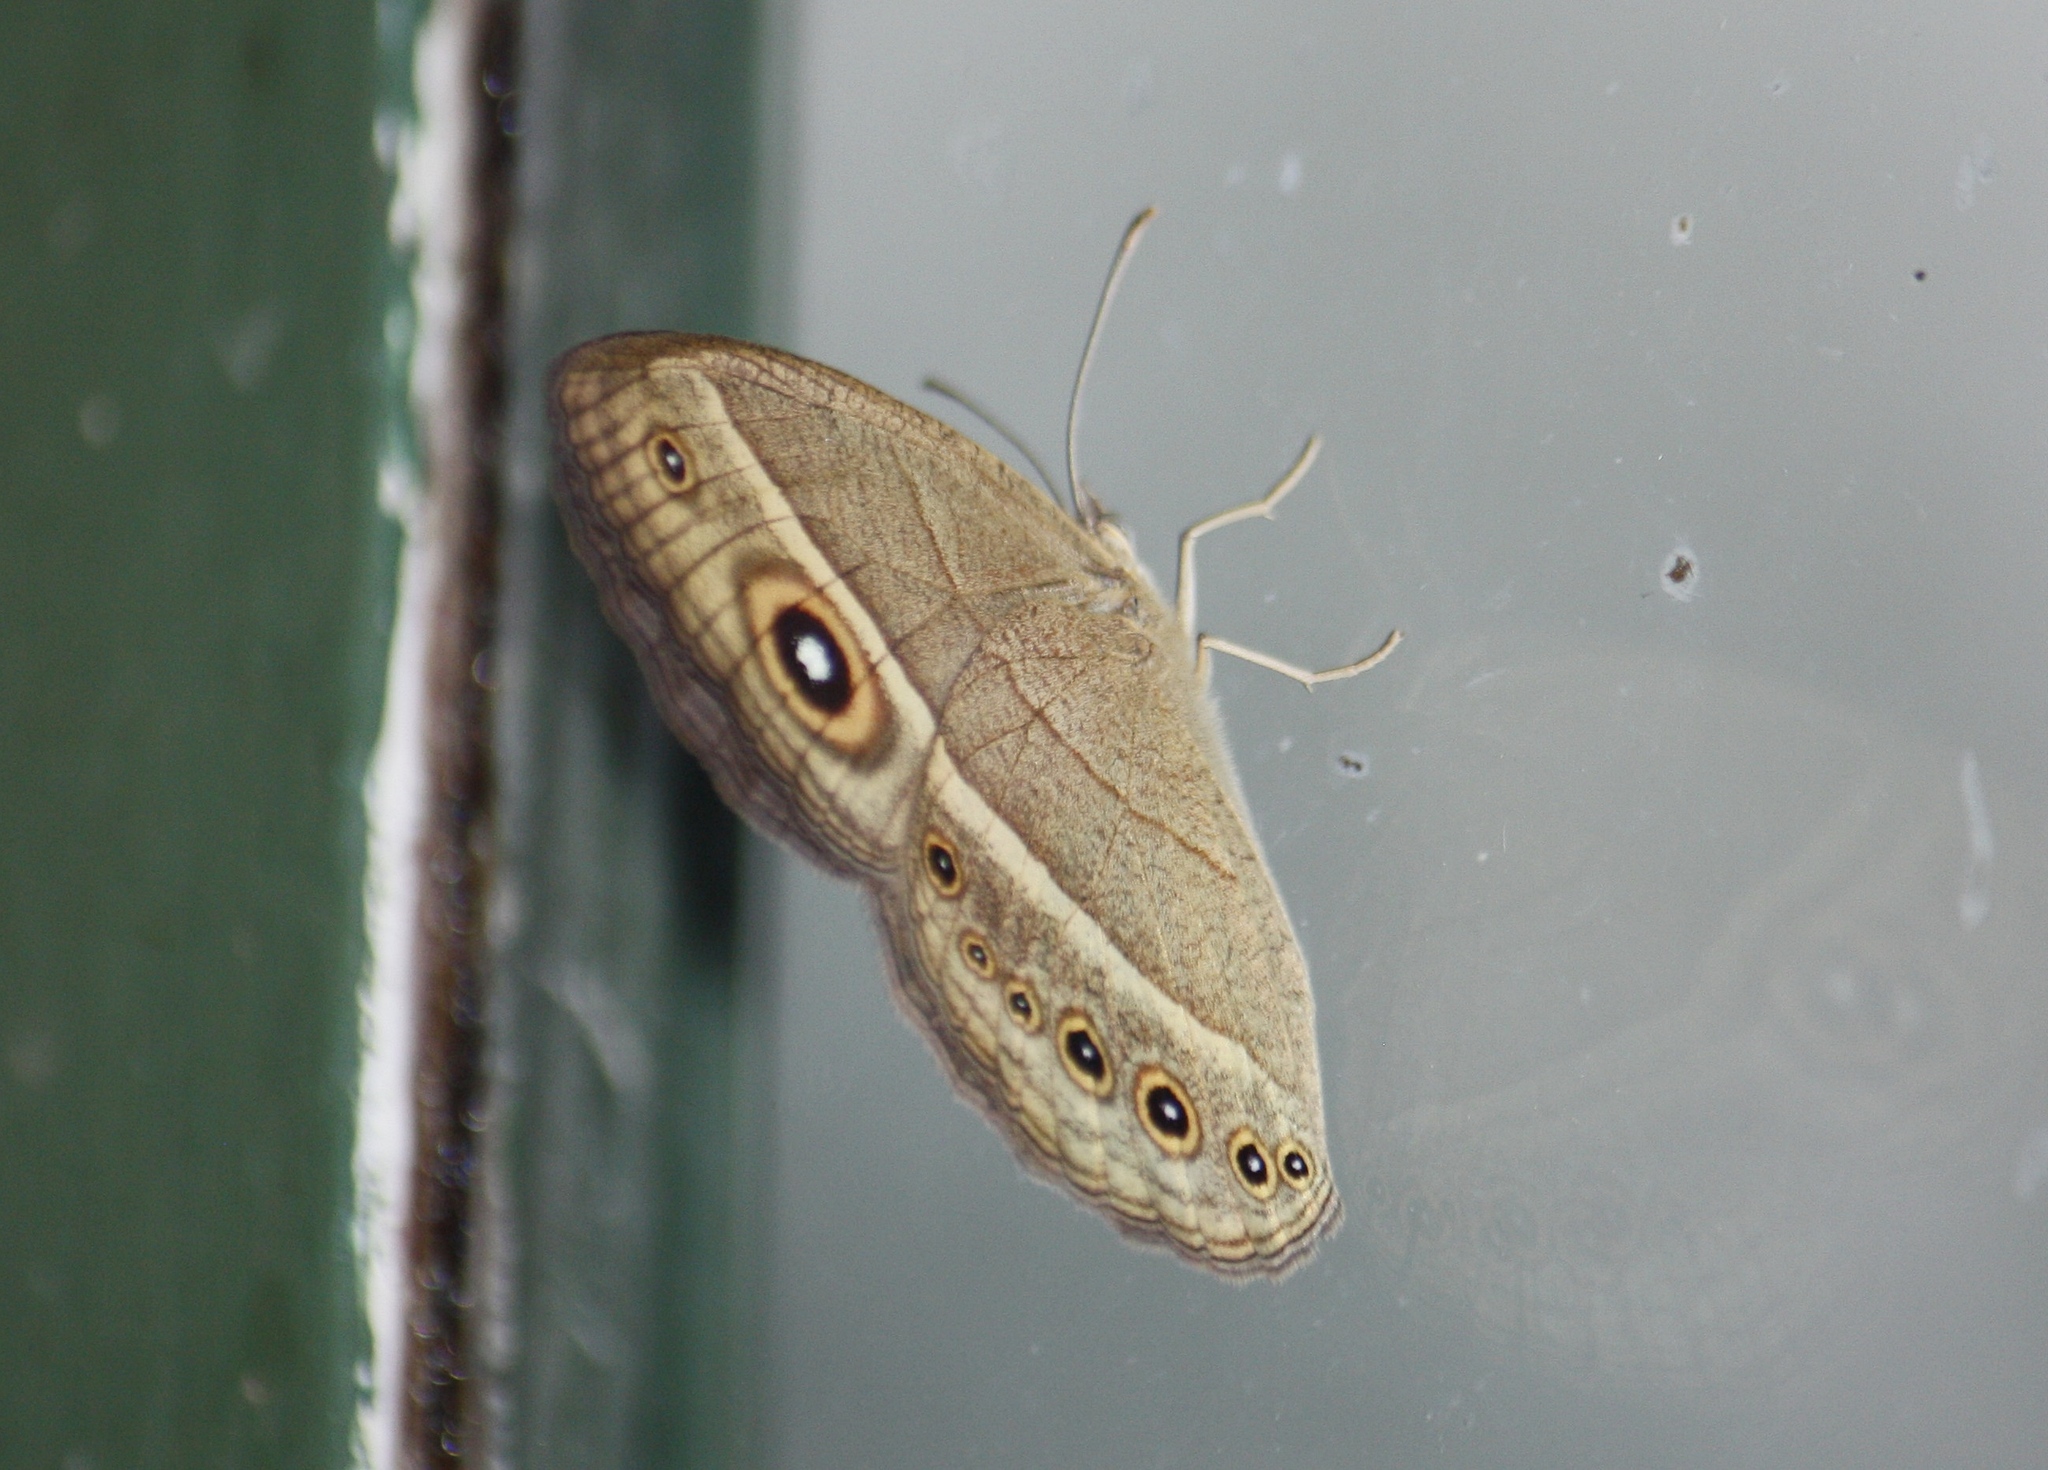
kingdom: Animalia
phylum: Arthropoda
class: Insecta
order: Lepidoptera
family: Nymphalidae
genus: Heteropsis
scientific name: Heteropsis perspicua
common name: Eyed bush brown
